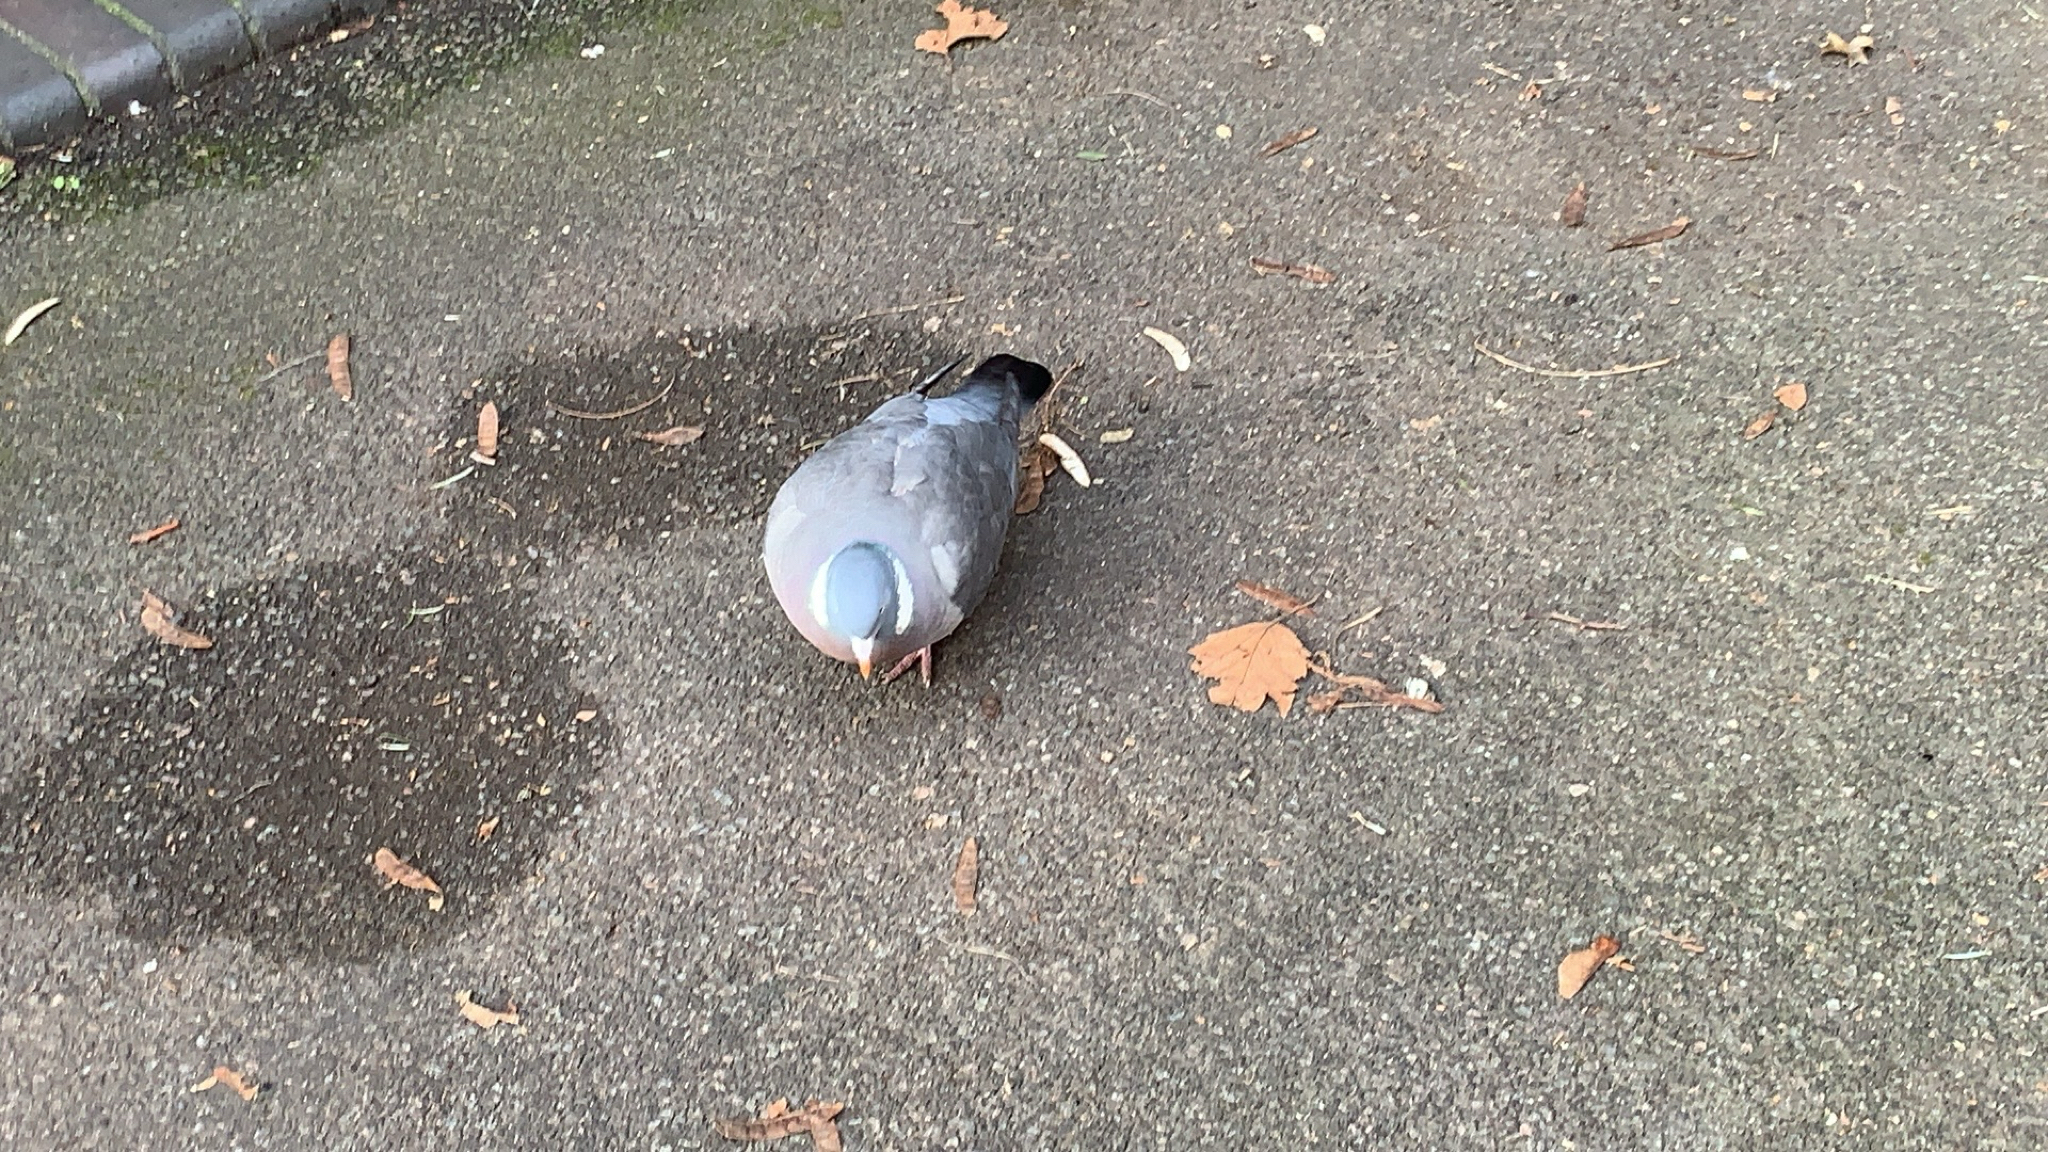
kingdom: Animalia
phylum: Chordata
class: Aves
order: Columbiformes
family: Columbidae
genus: Columba
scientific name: Columba palumbus
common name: Common wood pigeon
